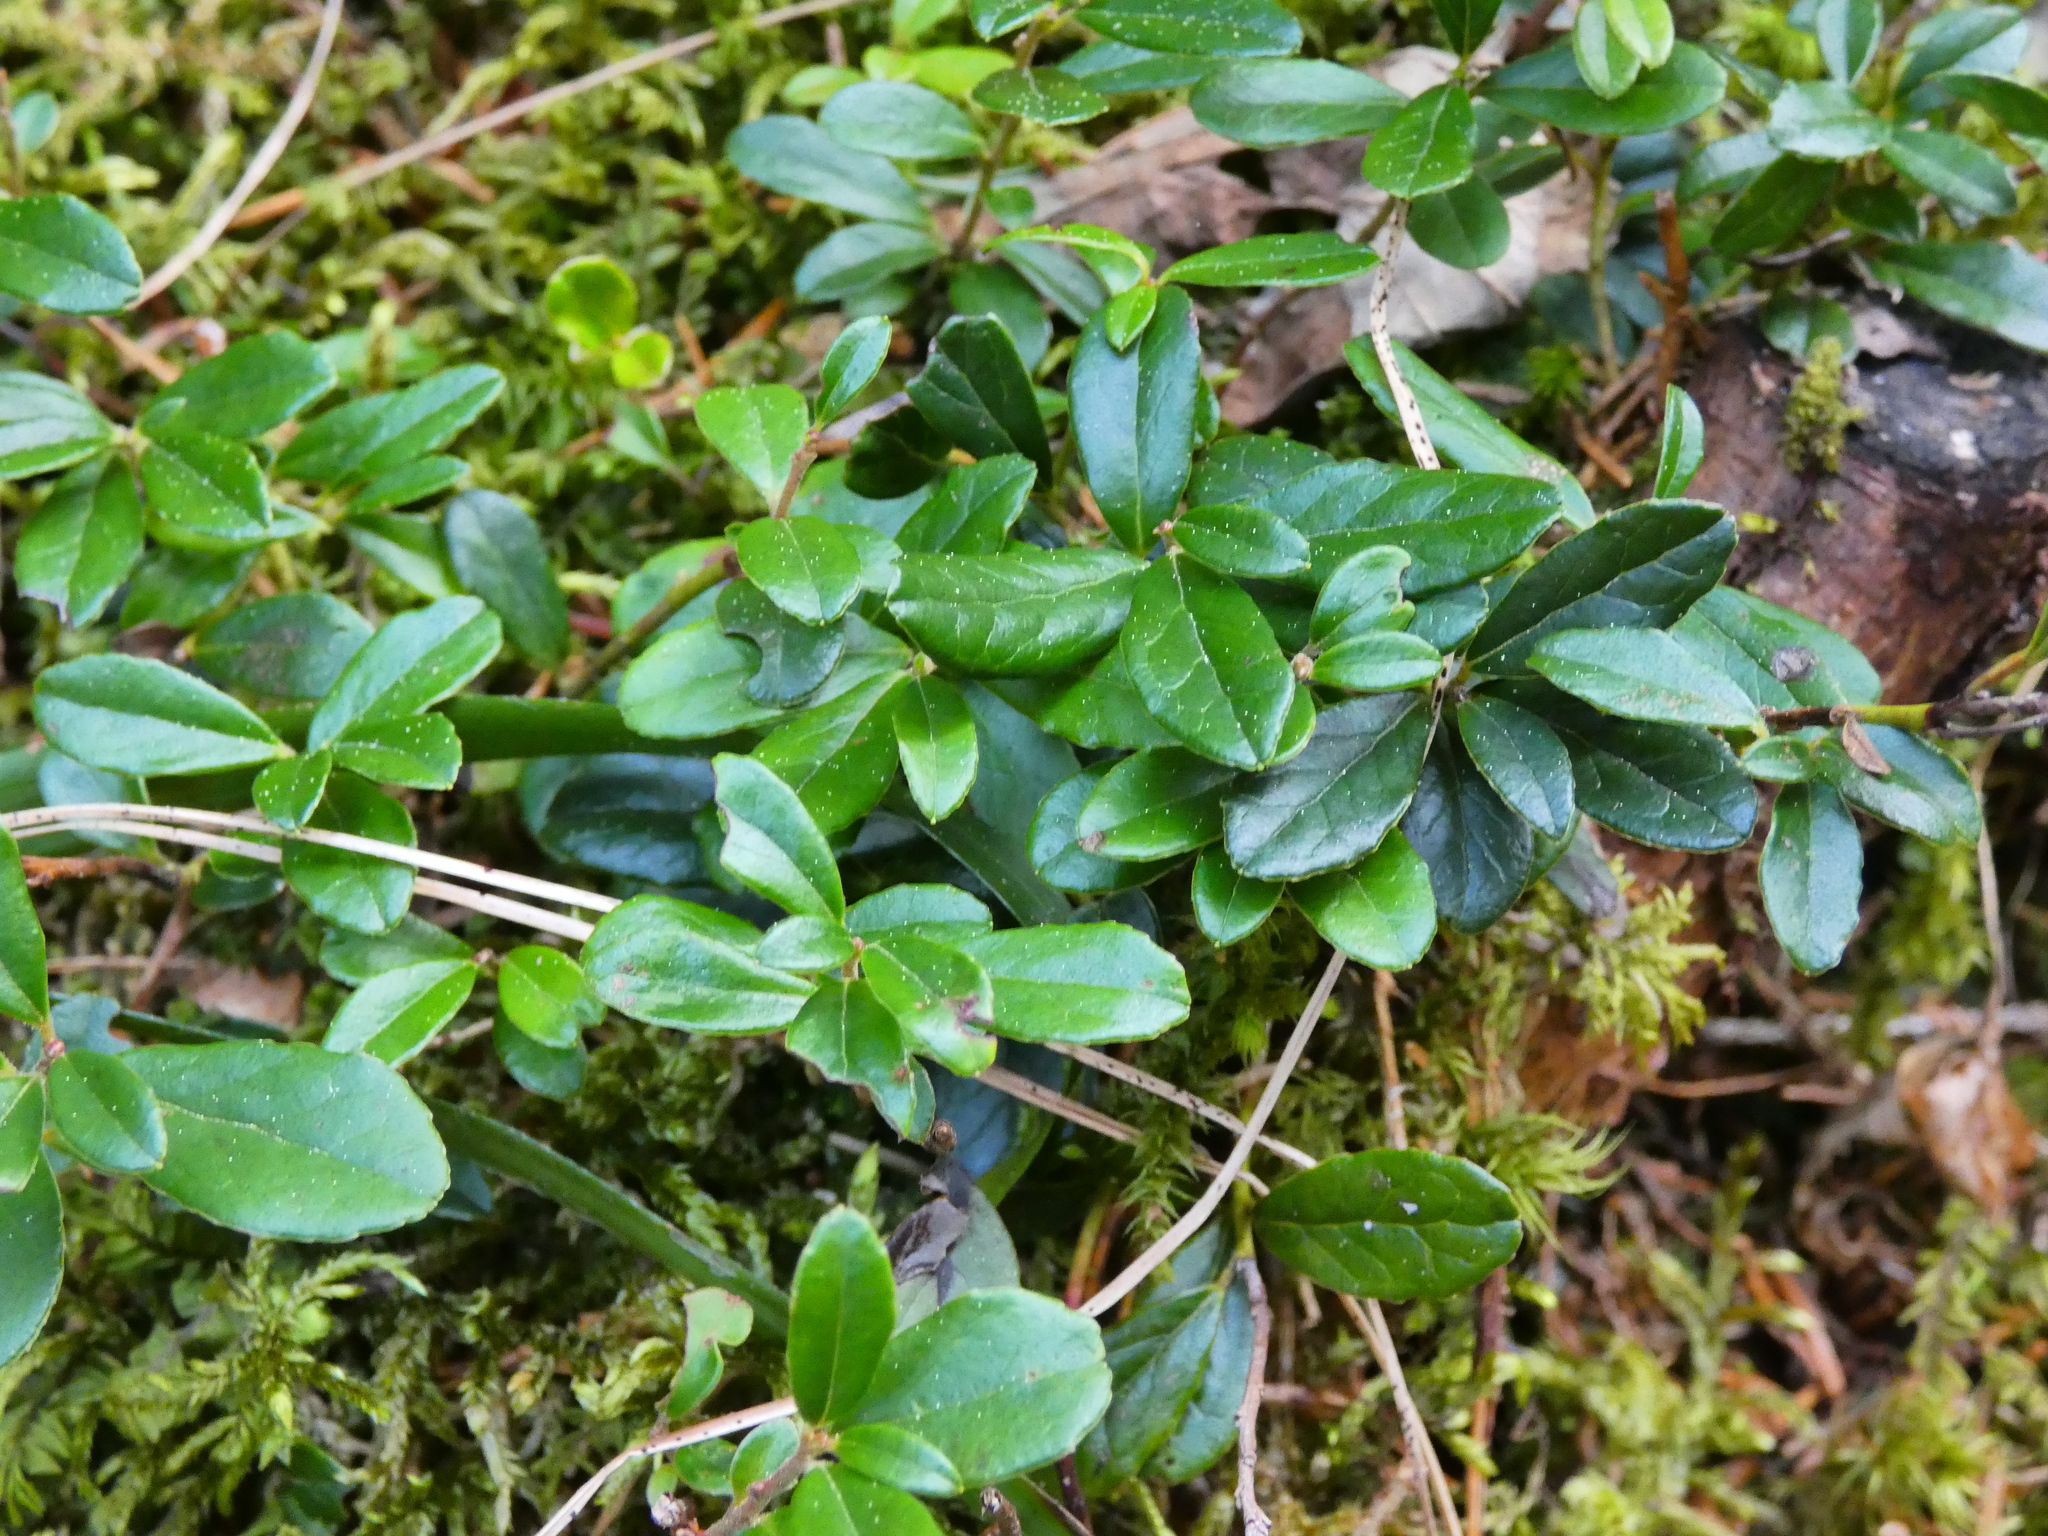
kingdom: Plantae
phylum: Tracheophyta
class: Magnoliopsida
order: Ericales
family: Ericaceae
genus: Vaccinium
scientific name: Vaccinium vitis-idaea
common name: Cowberry
